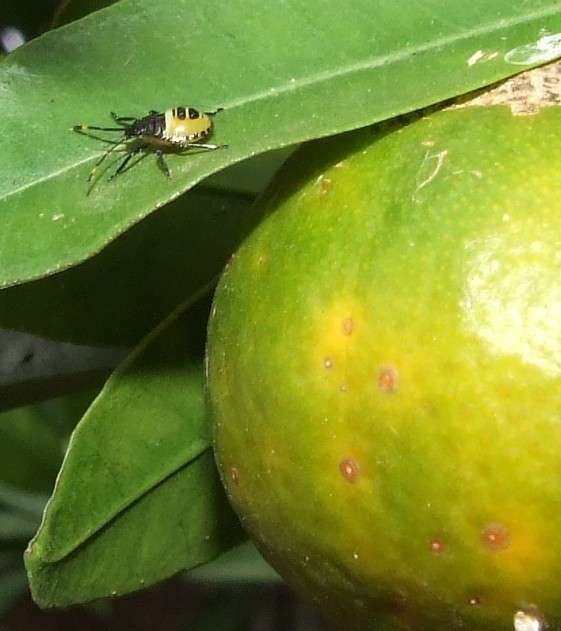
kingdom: Animalia
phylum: Arthropoda
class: Insecta
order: Hemiptera
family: Pentatomidae
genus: Biprorulus
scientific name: Biprorulus
